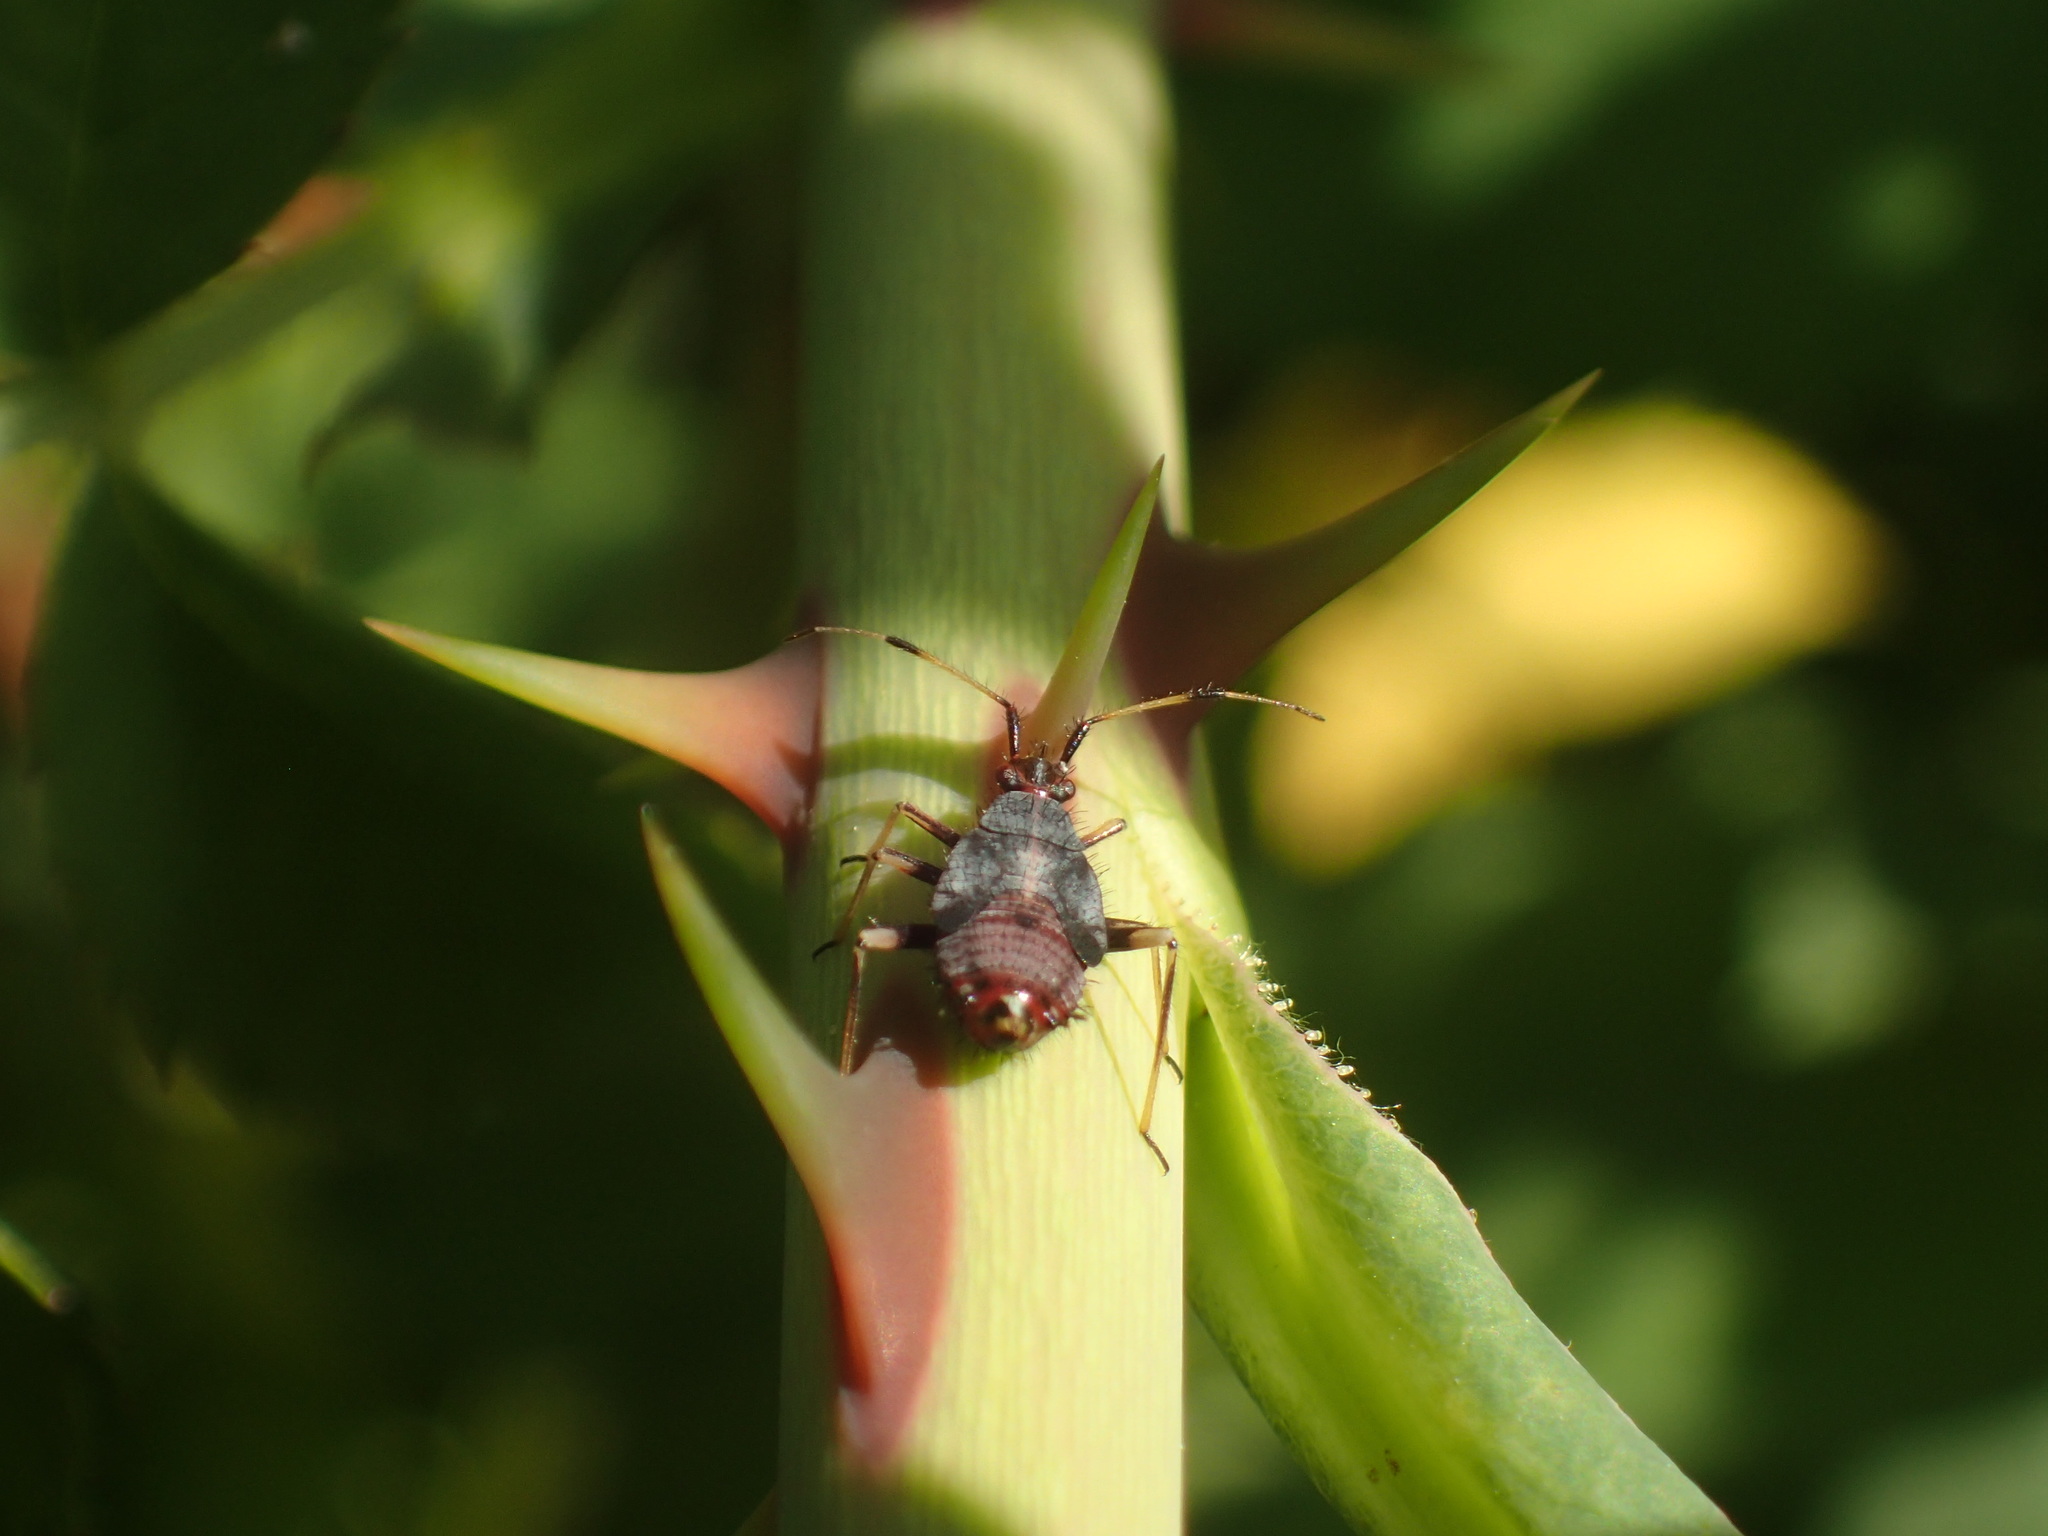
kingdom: Animalia
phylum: Arthropoda
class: Insecta
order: Hemiptera
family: Miridae
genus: Deraeocoris
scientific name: Deraeocoris ruber
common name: Plant bug
